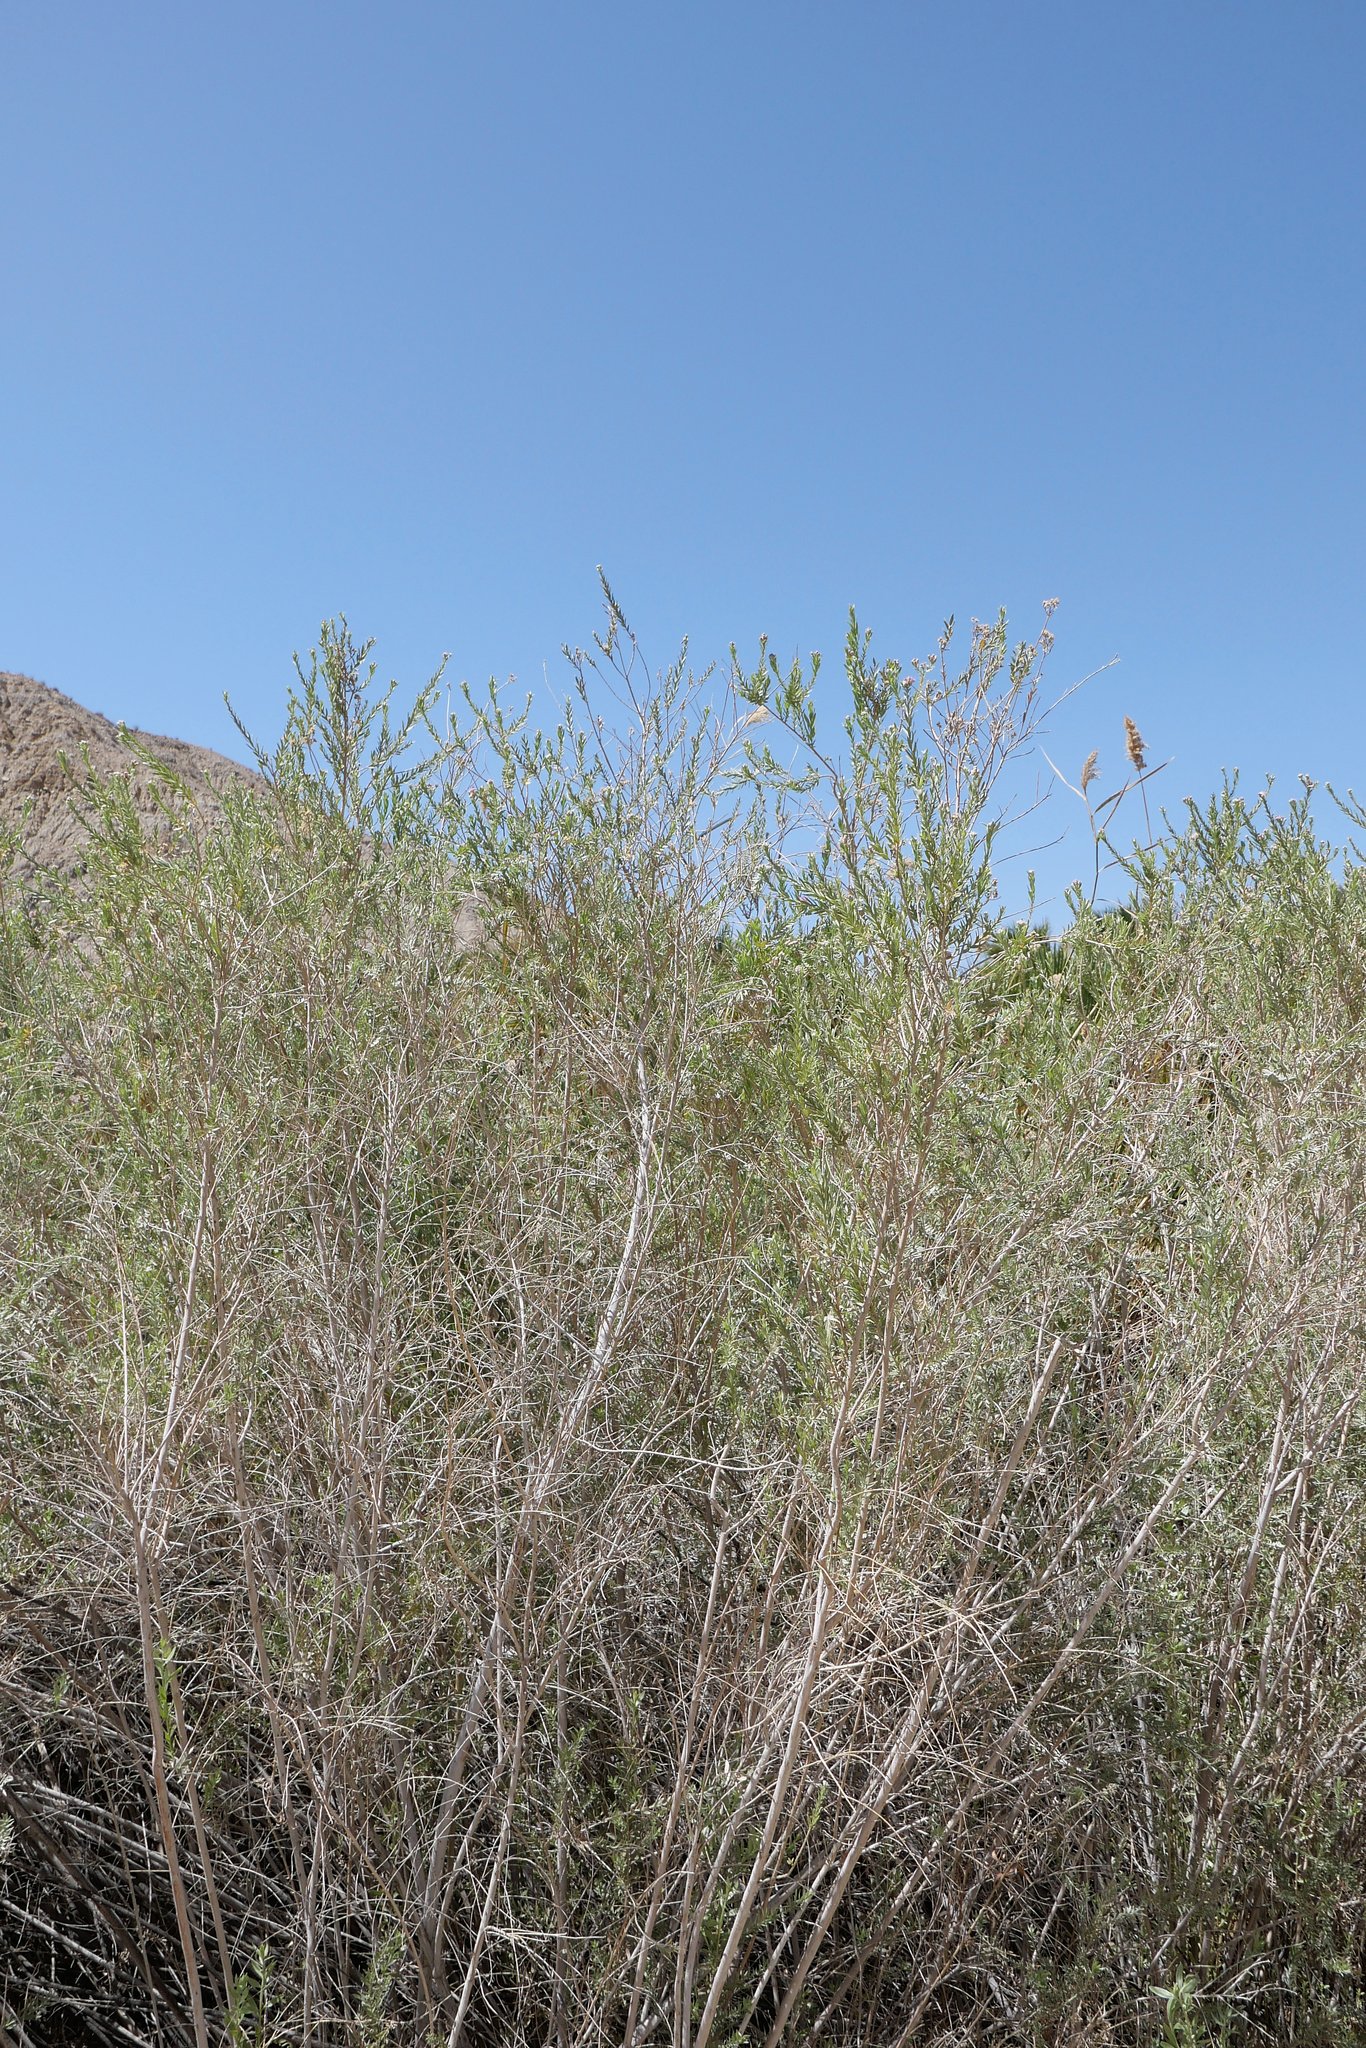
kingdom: Plantae
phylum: Tracheophyta
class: Magnoliopsida
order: Asterales
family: Asteraceae
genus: Pluchea
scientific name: Pluchea sericea
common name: Arrow-weed
